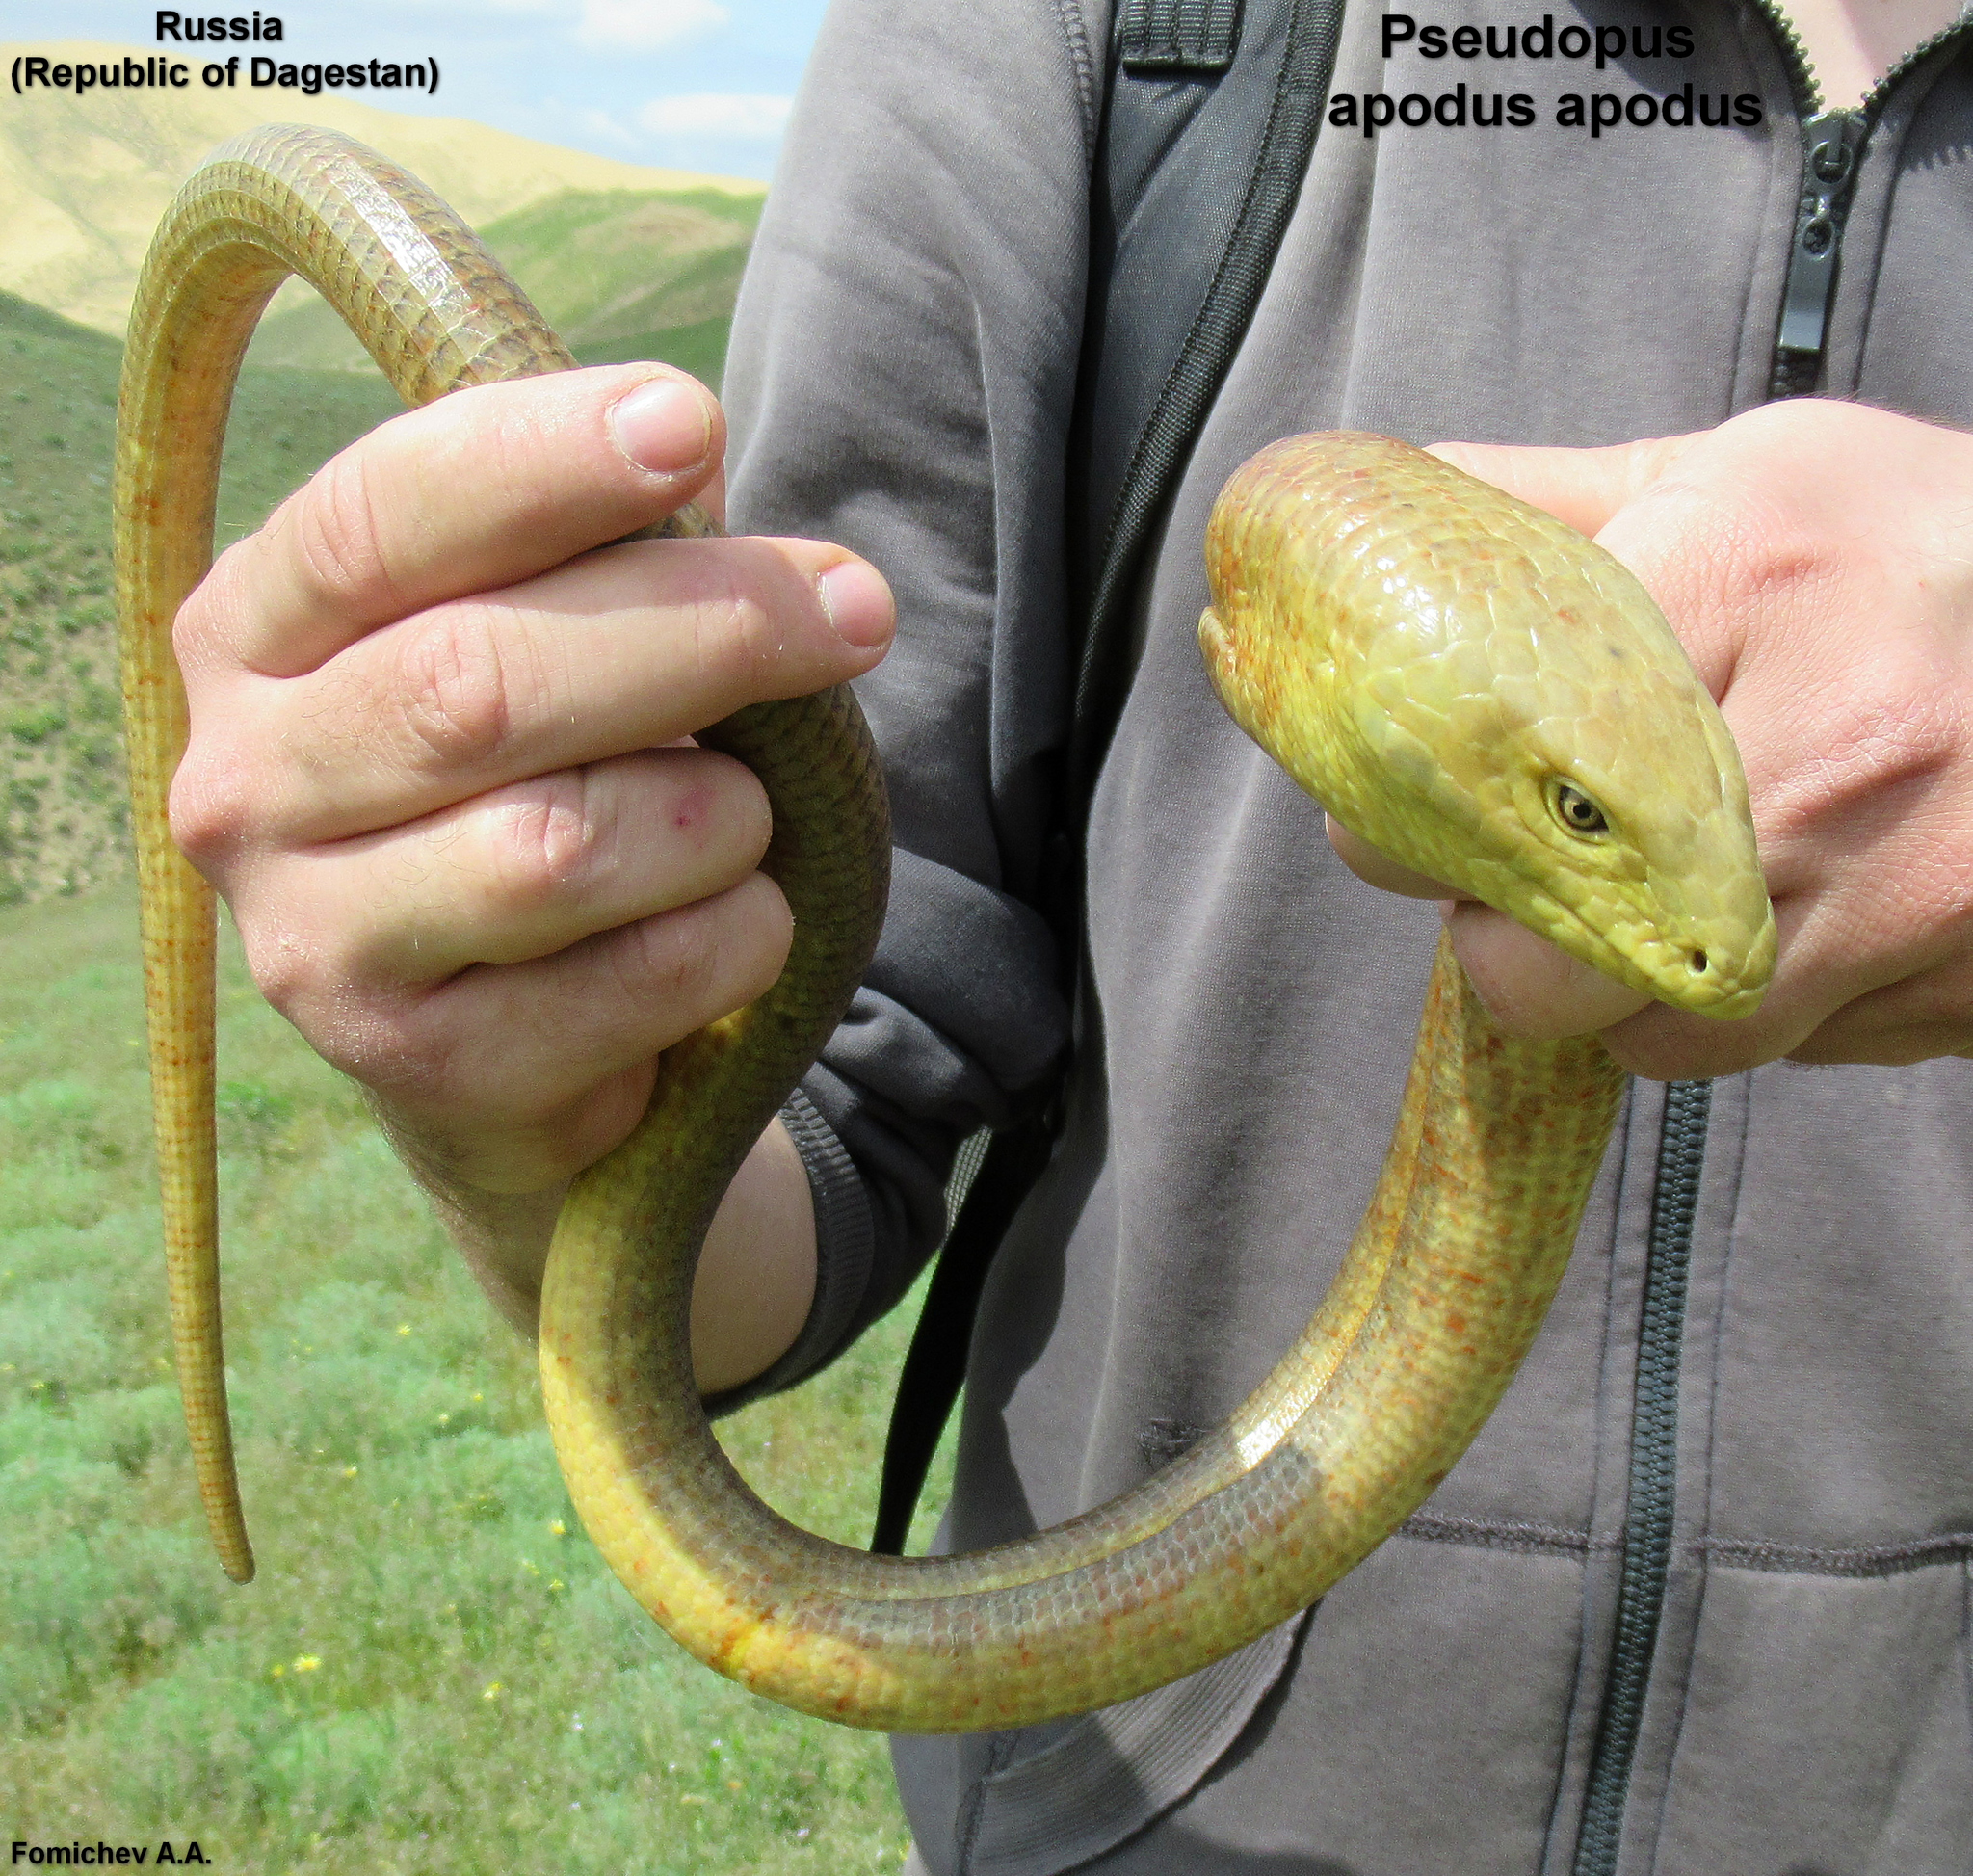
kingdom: Animalia
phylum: Chordata
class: Squamata
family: Anguidae
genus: Pseudopus
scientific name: Pseudopus apodus
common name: European glass lizard
